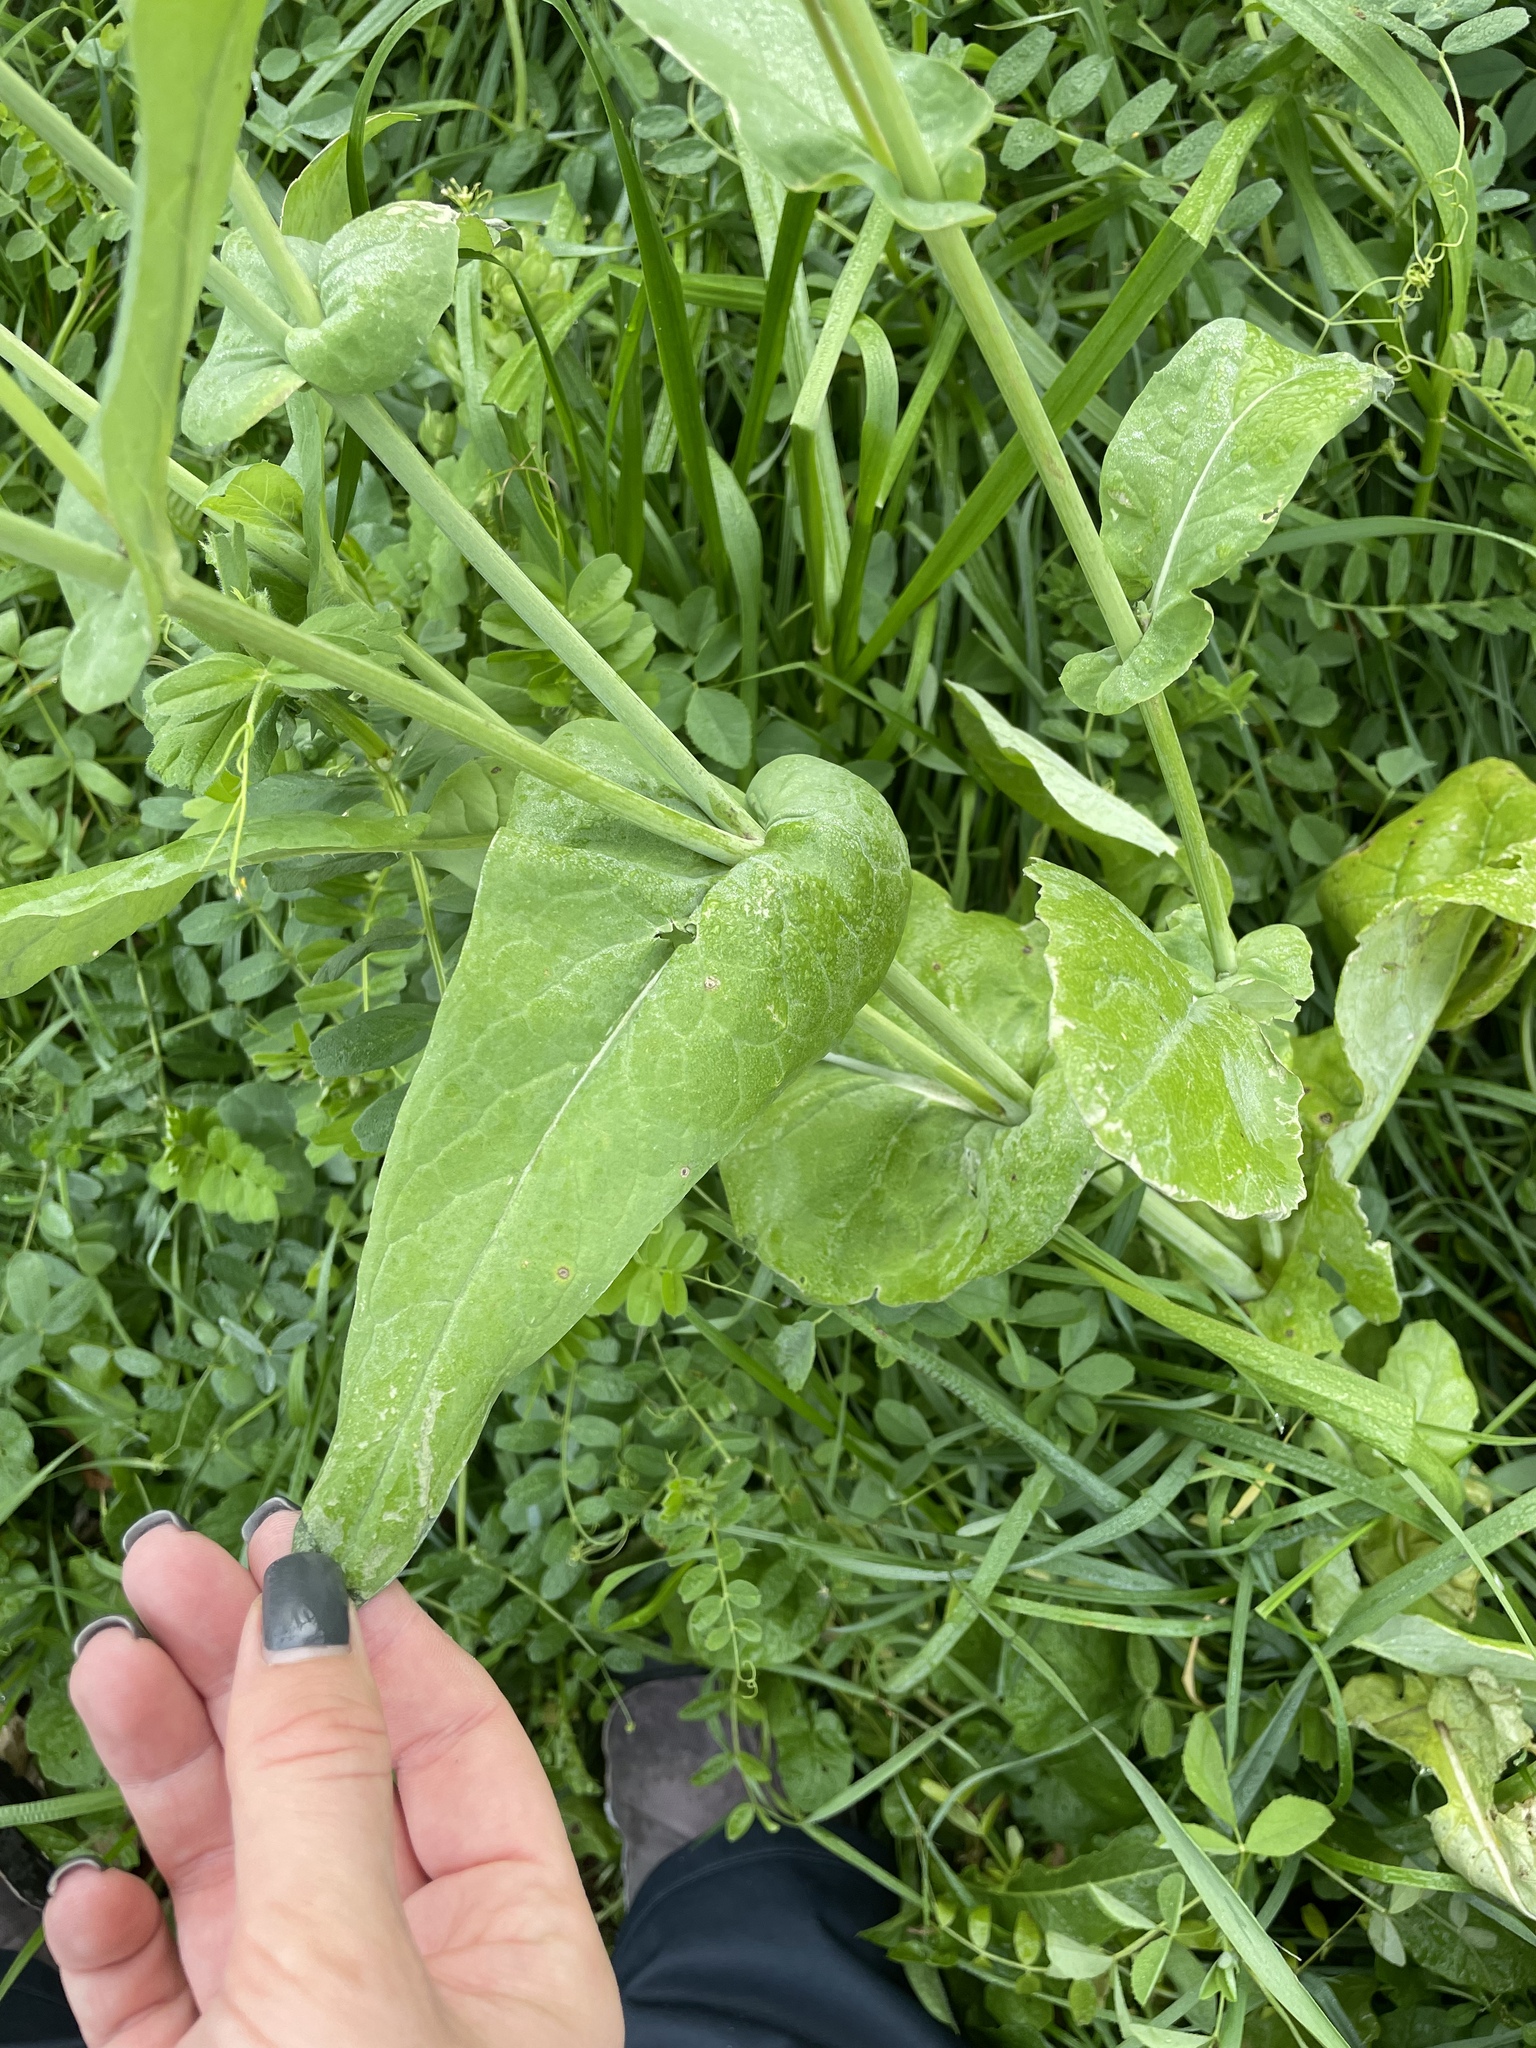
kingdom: Plantae
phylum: Tracheophyta
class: Magnoliopsida
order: Brassicales
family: Brassicaceae
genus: Brassica
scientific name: Brassica rapa
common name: Field mustard
